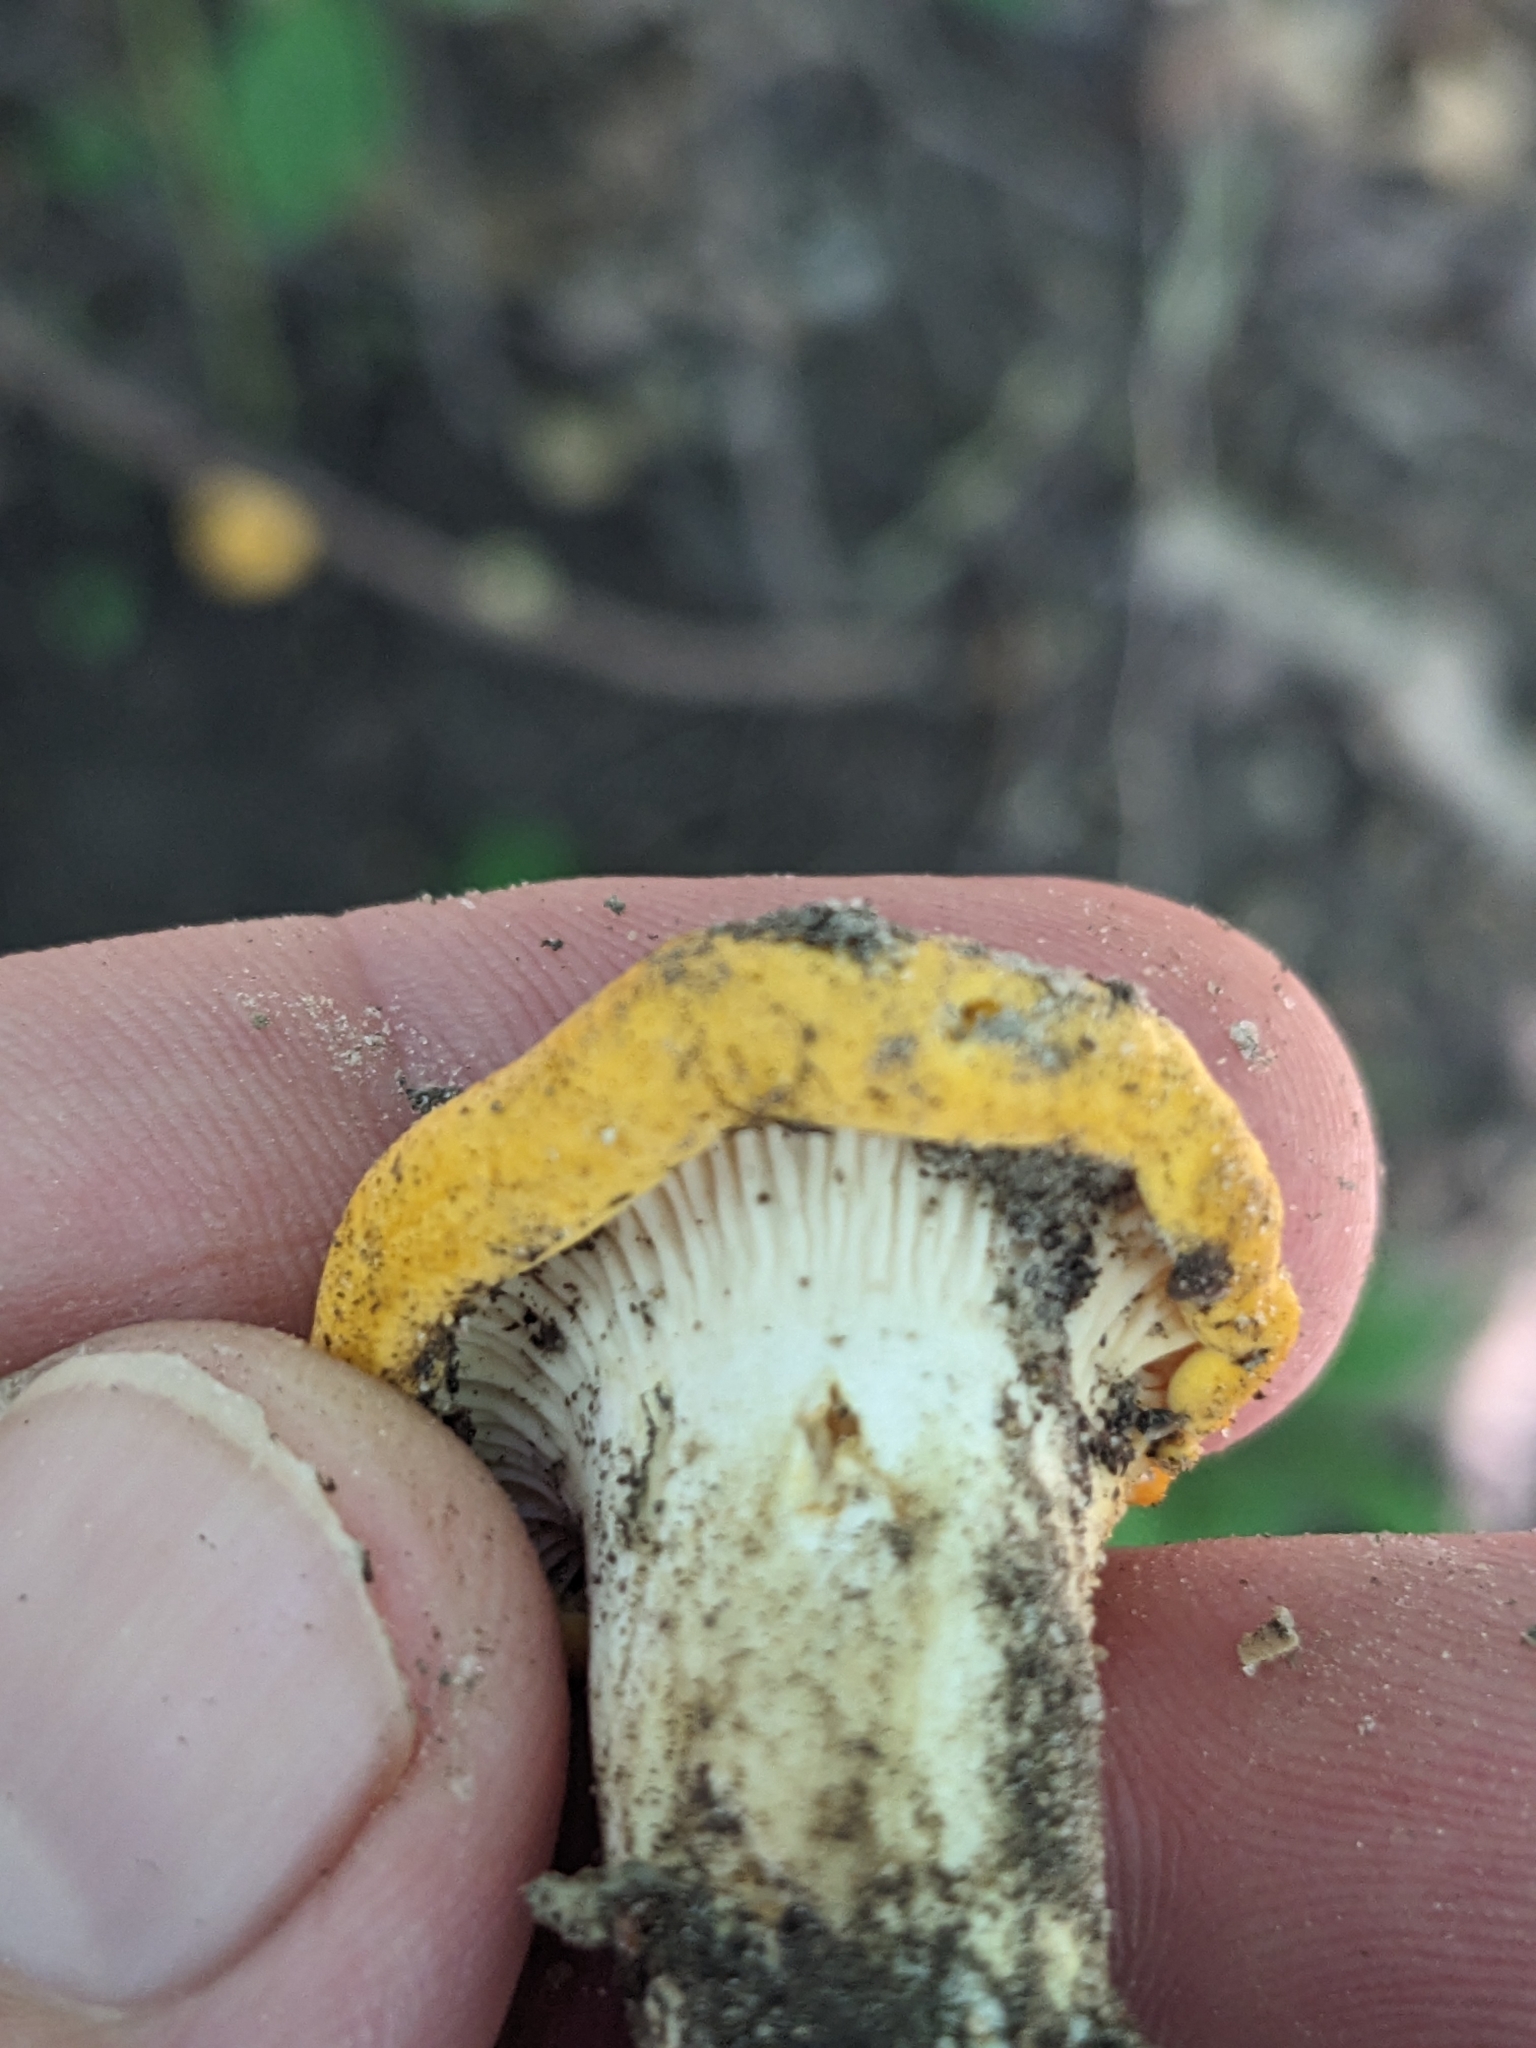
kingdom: Fungi
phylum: Basidiomycota
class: Agaricomycetes
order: Cantharellales
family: Hydnaceae
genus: Cantharellus
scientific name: Cantharellus phasmatis
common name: Ghost chanterelle
